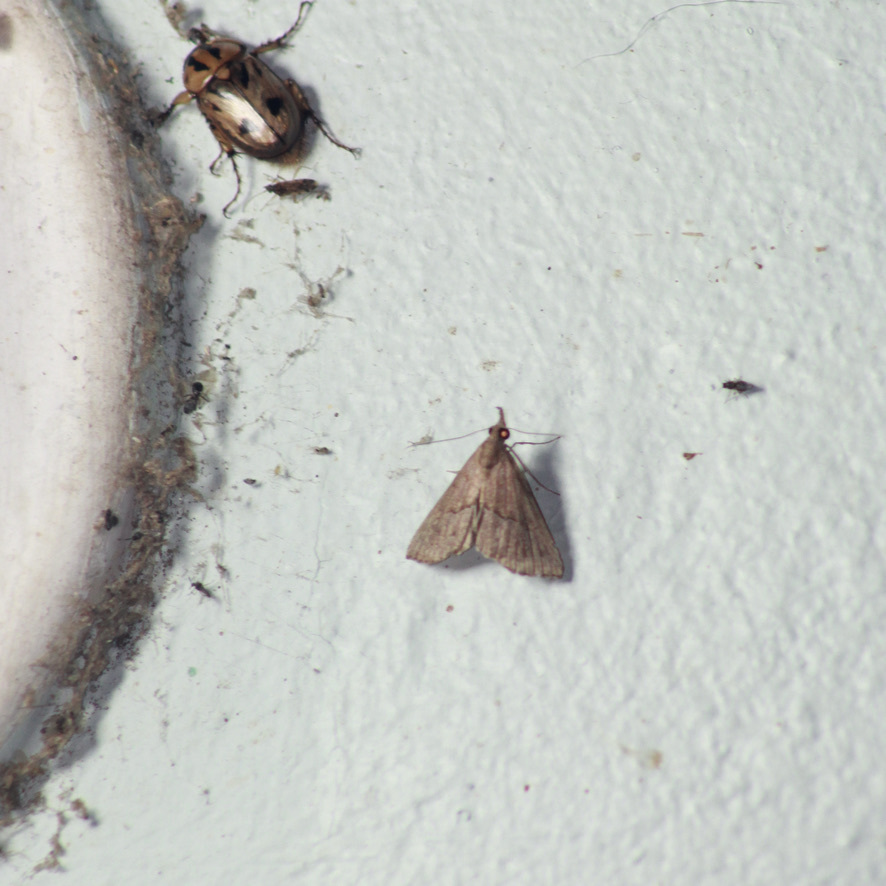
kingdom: Animalia
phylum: Arthropoda
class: Insecta
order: Lepidoptera
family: Erebidae
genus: Hypena
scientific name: Hypena porrectalis
